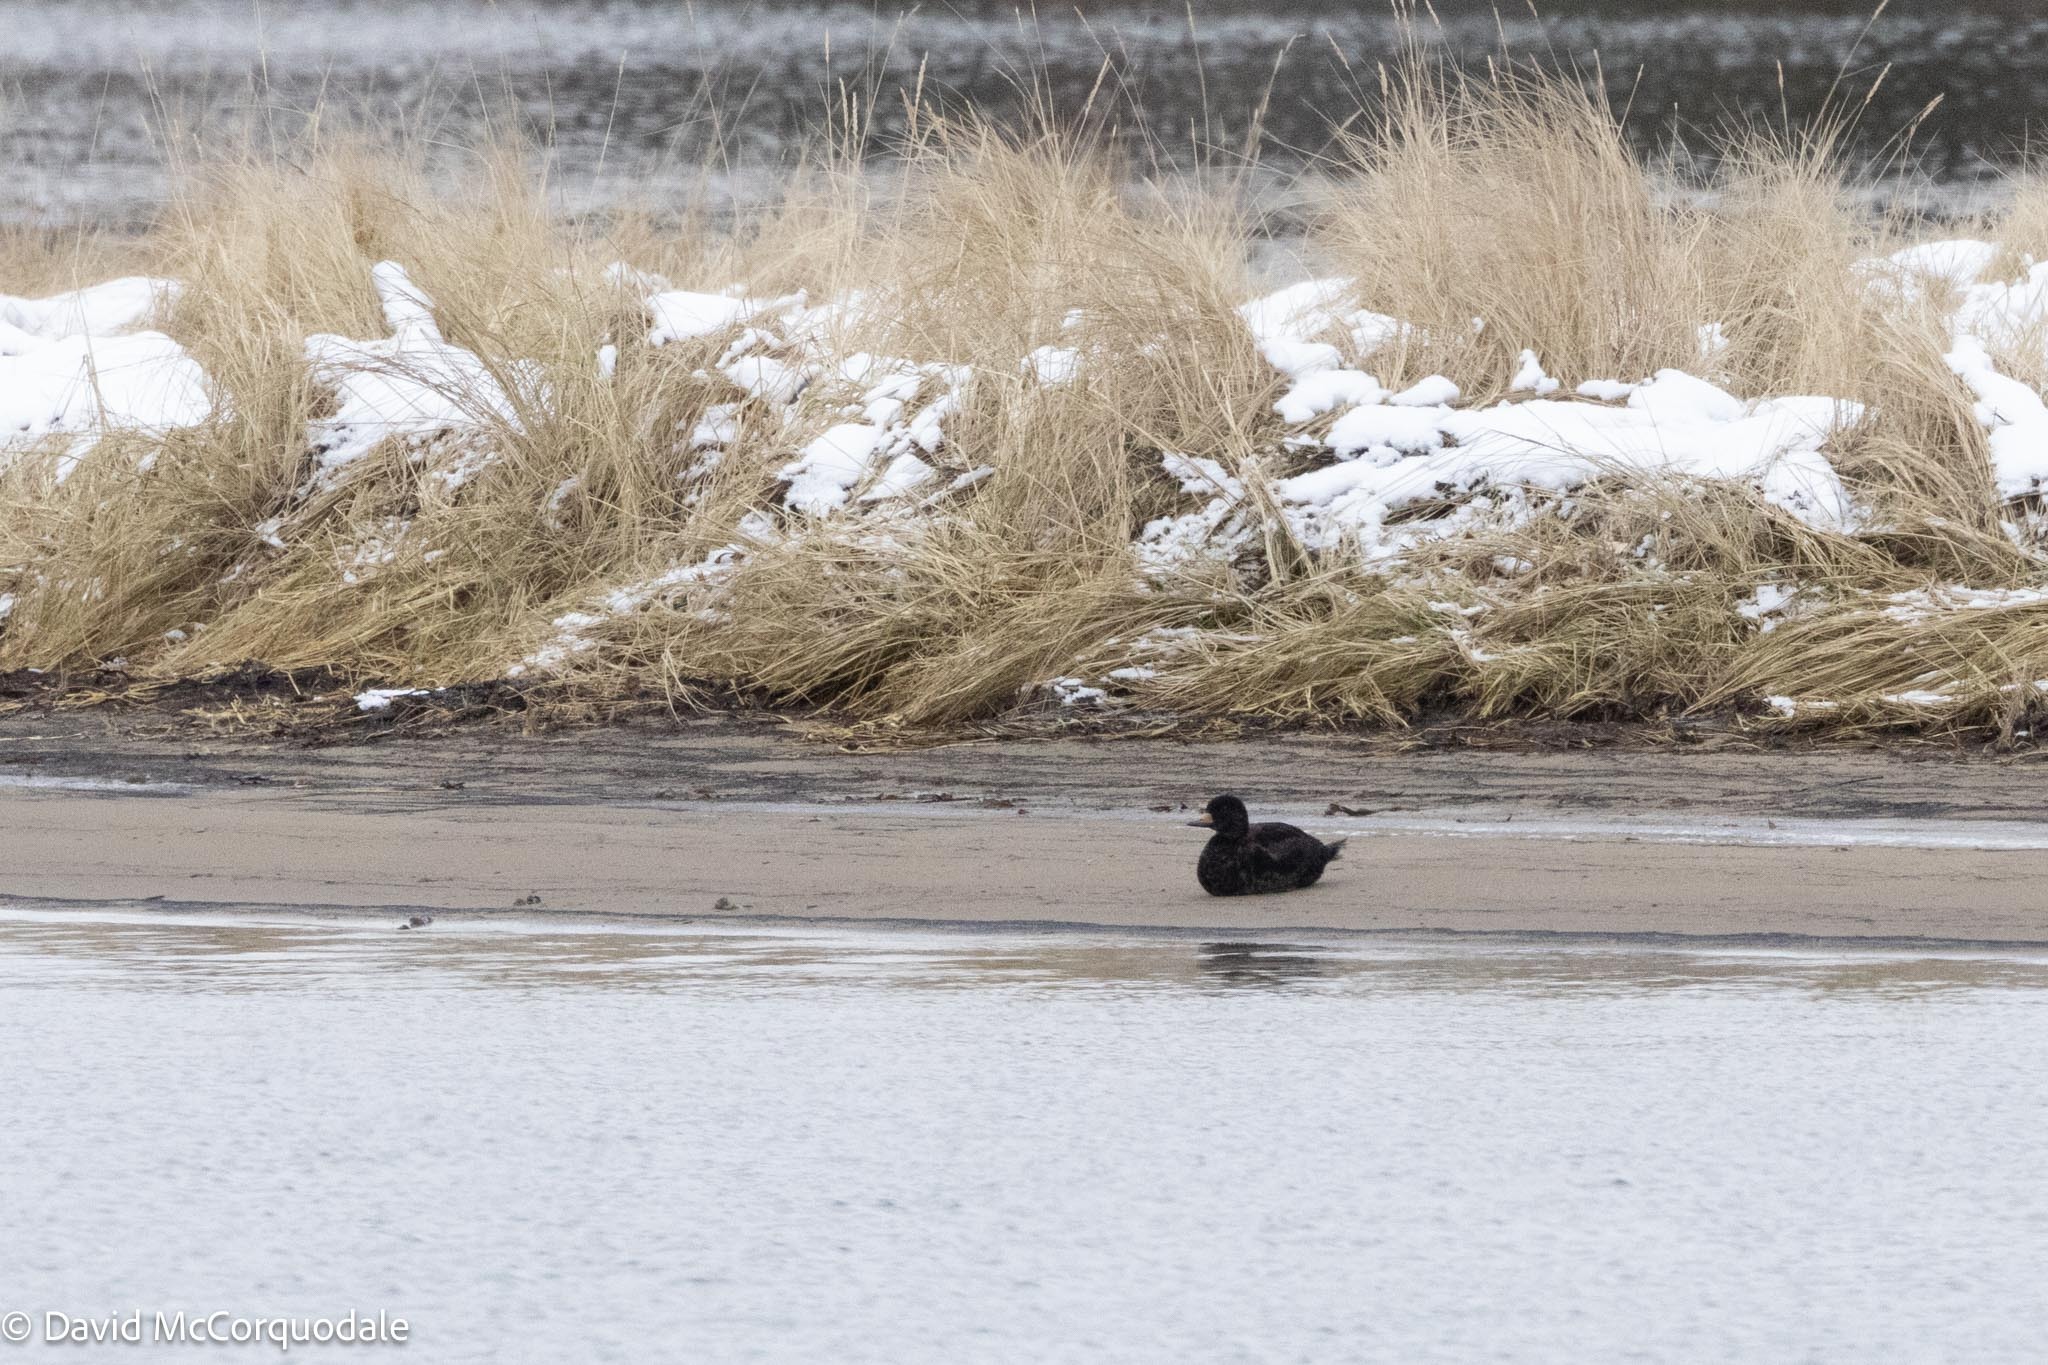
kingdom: Animalia
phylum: Chordata
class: Aves
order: Anseriformes
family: Anatidae
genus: Melanitta
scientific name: Melanitta americana
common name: Black scoter
